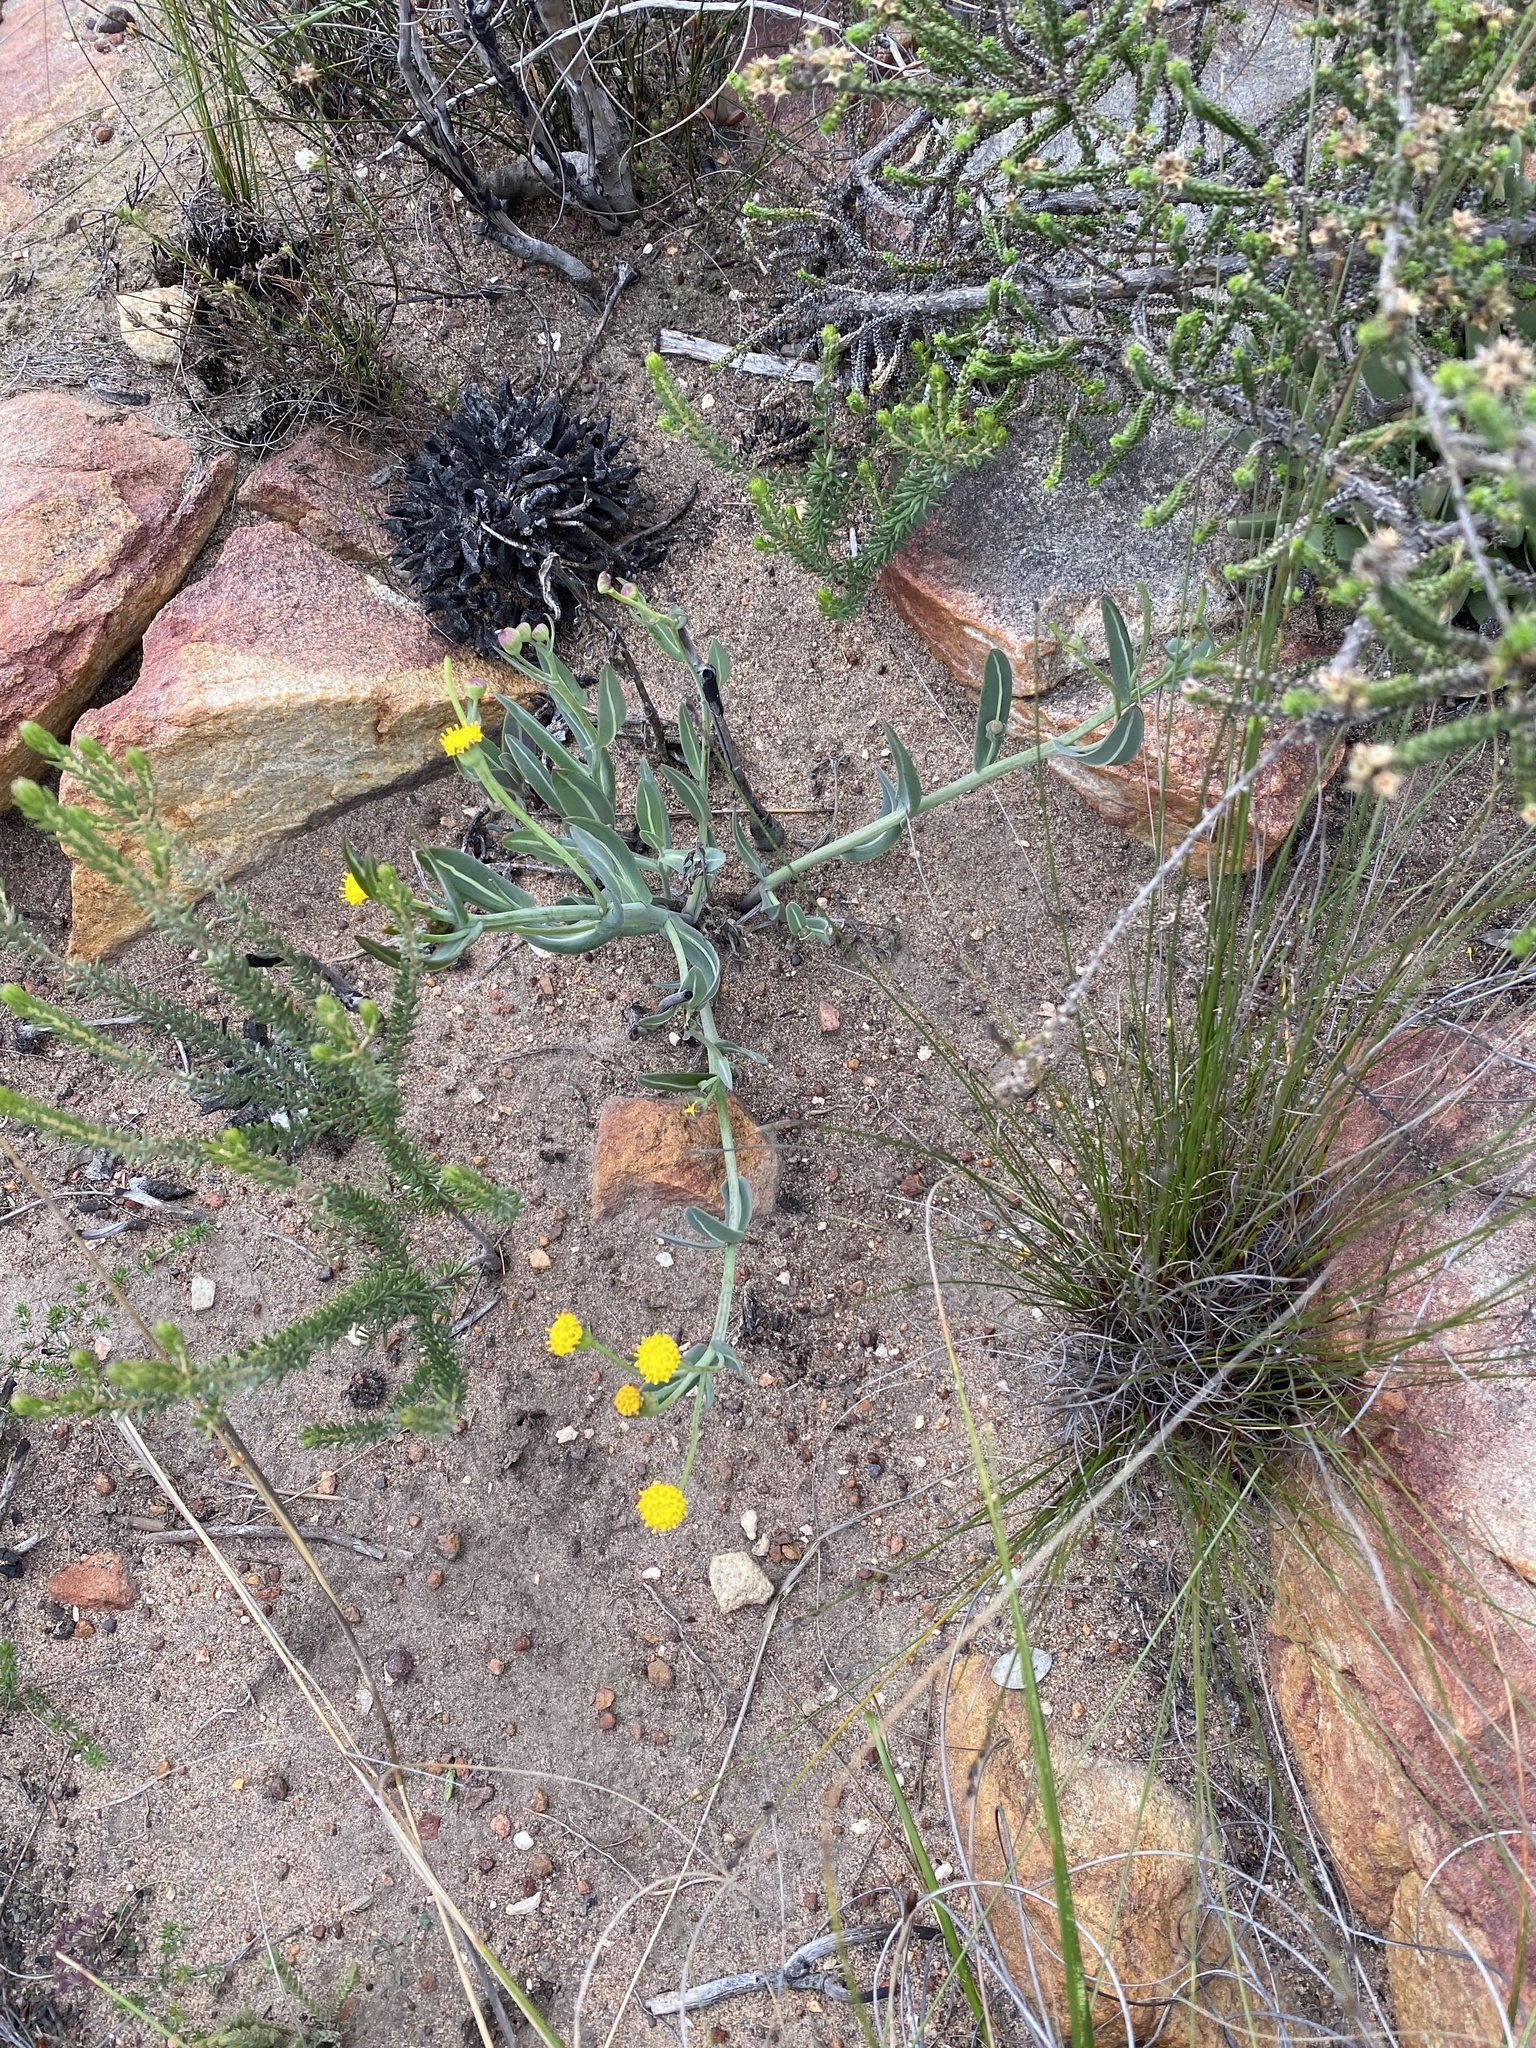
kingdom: Plantae
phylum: Tracheophyta
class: Magnoliopsida
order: Asterales
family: Asteraceae
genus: Othonna
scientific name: Othonna gymnodiscus
